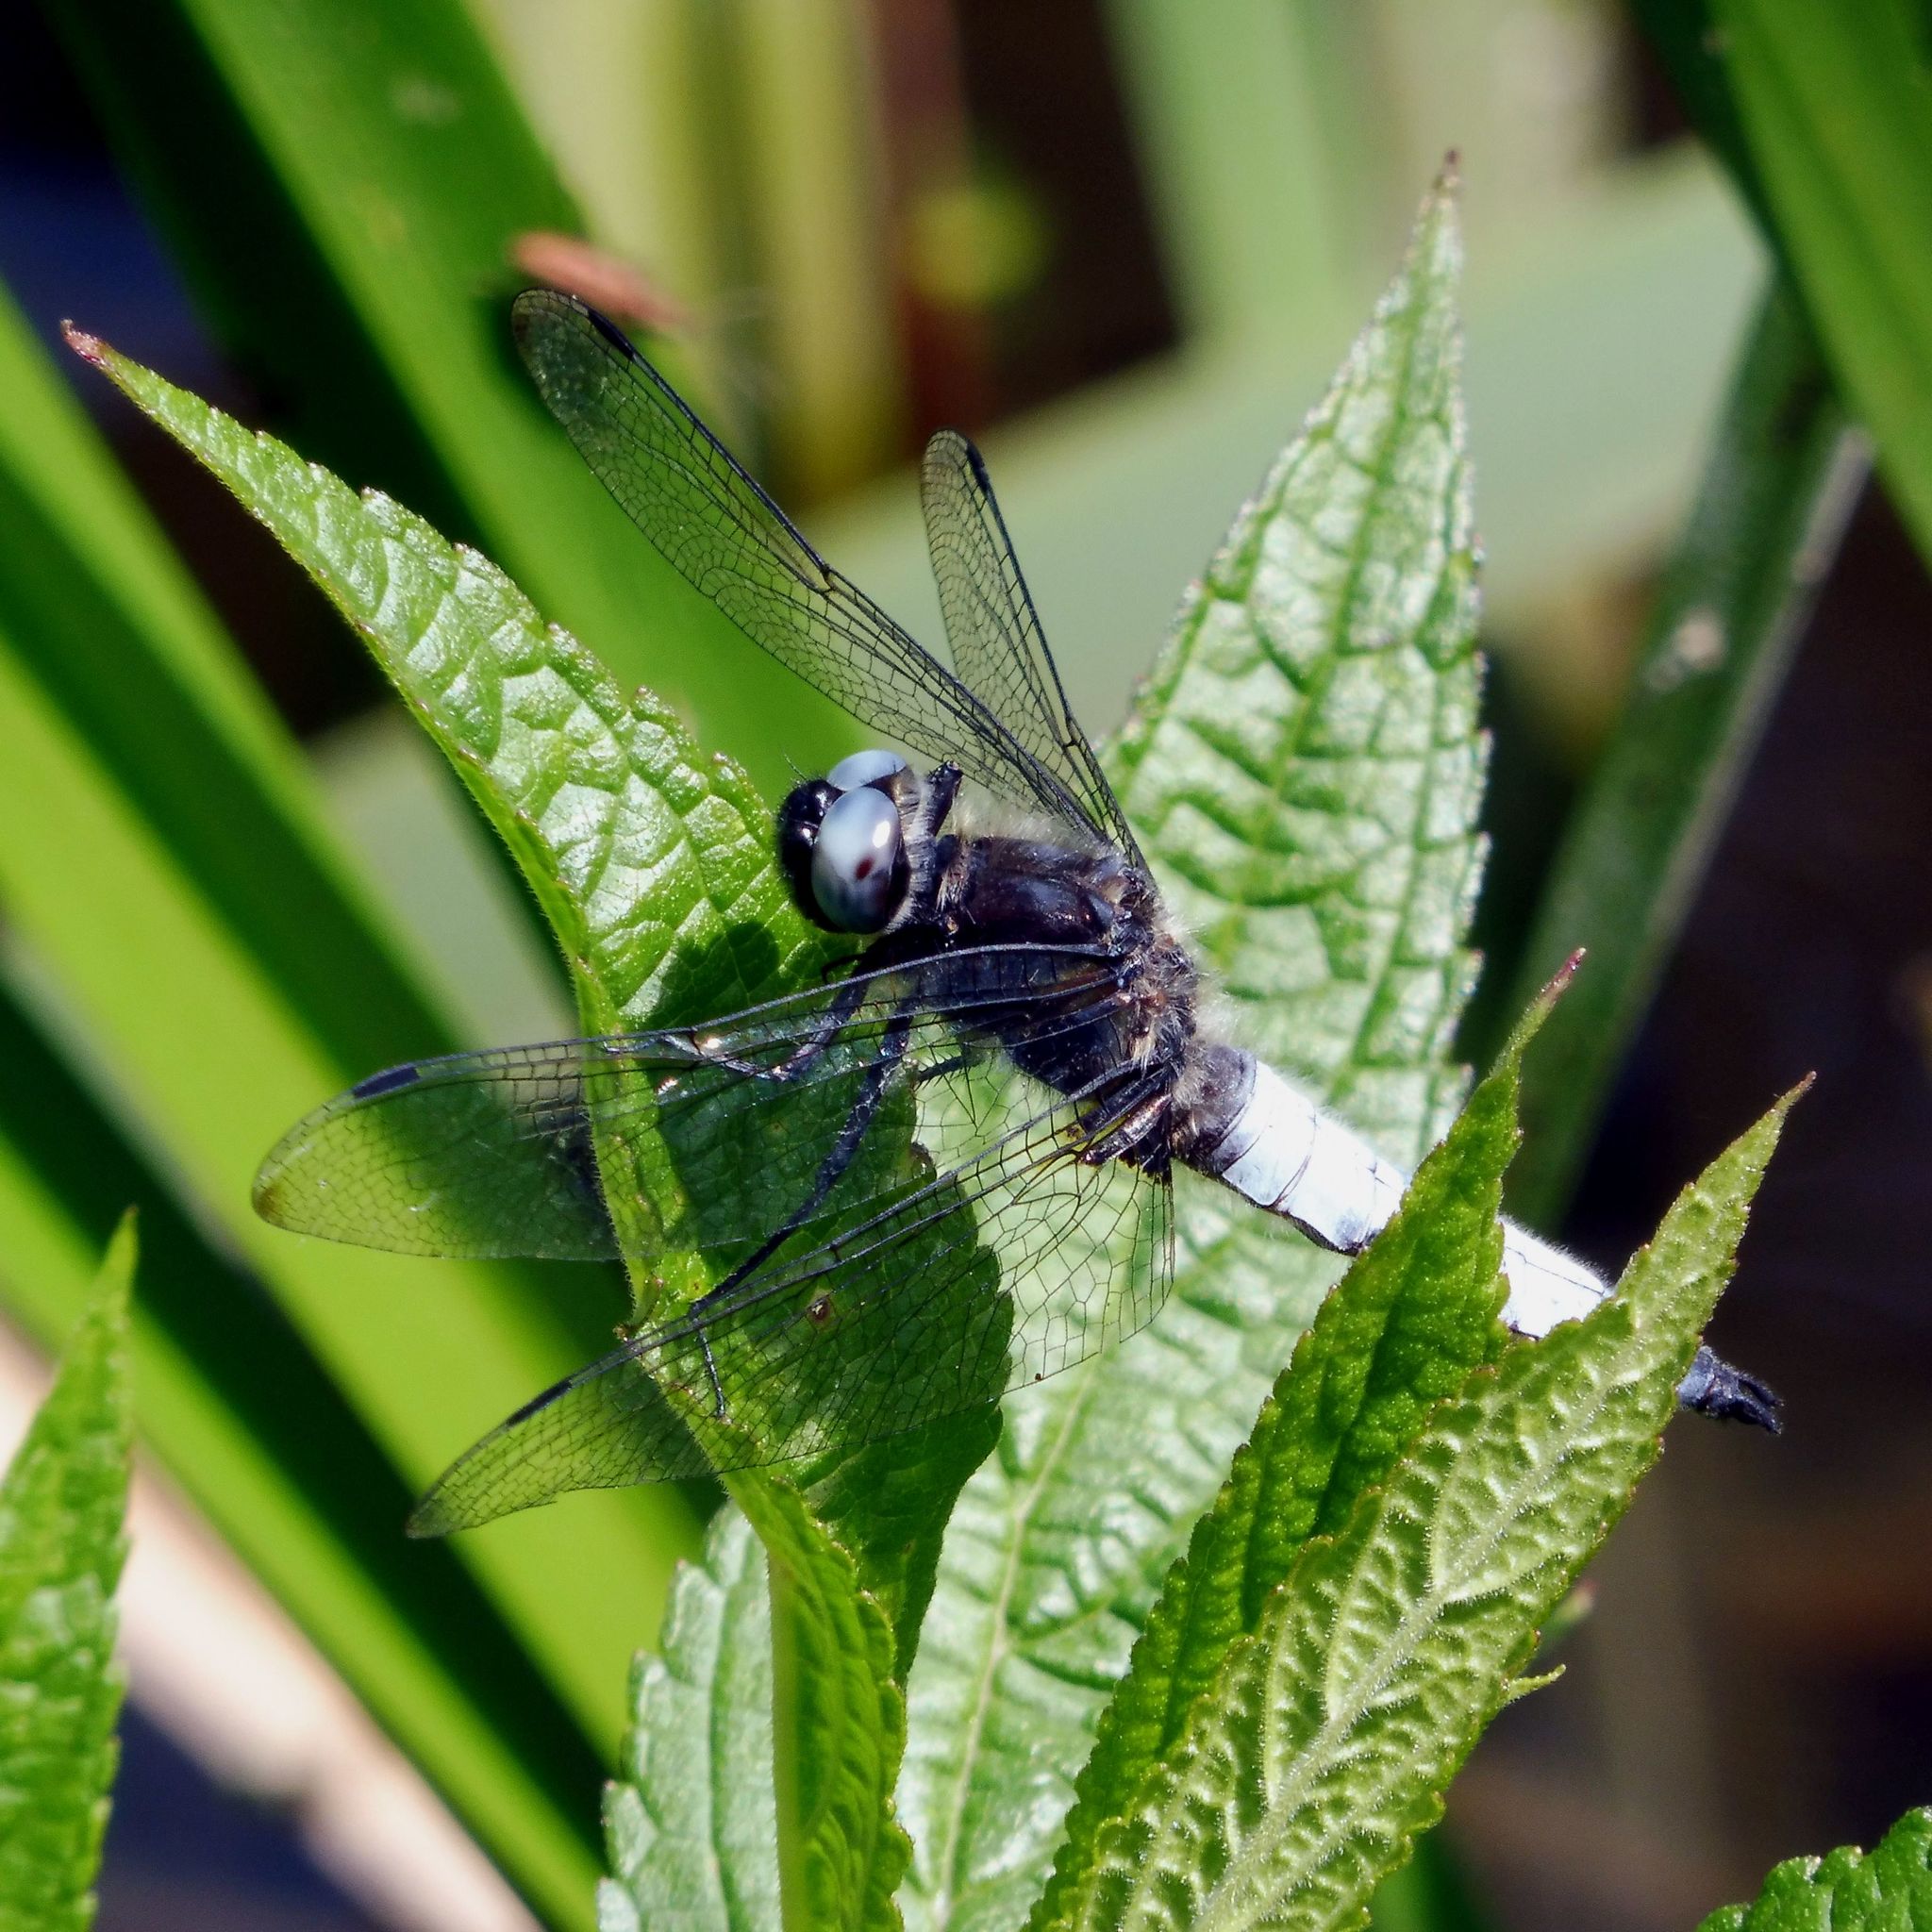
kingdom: Animalia
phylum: Arthropoda
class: Insecta
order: Odonata
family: Libellulidae
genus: Libellula
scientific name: Libellula fulva
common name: Blue chaser
